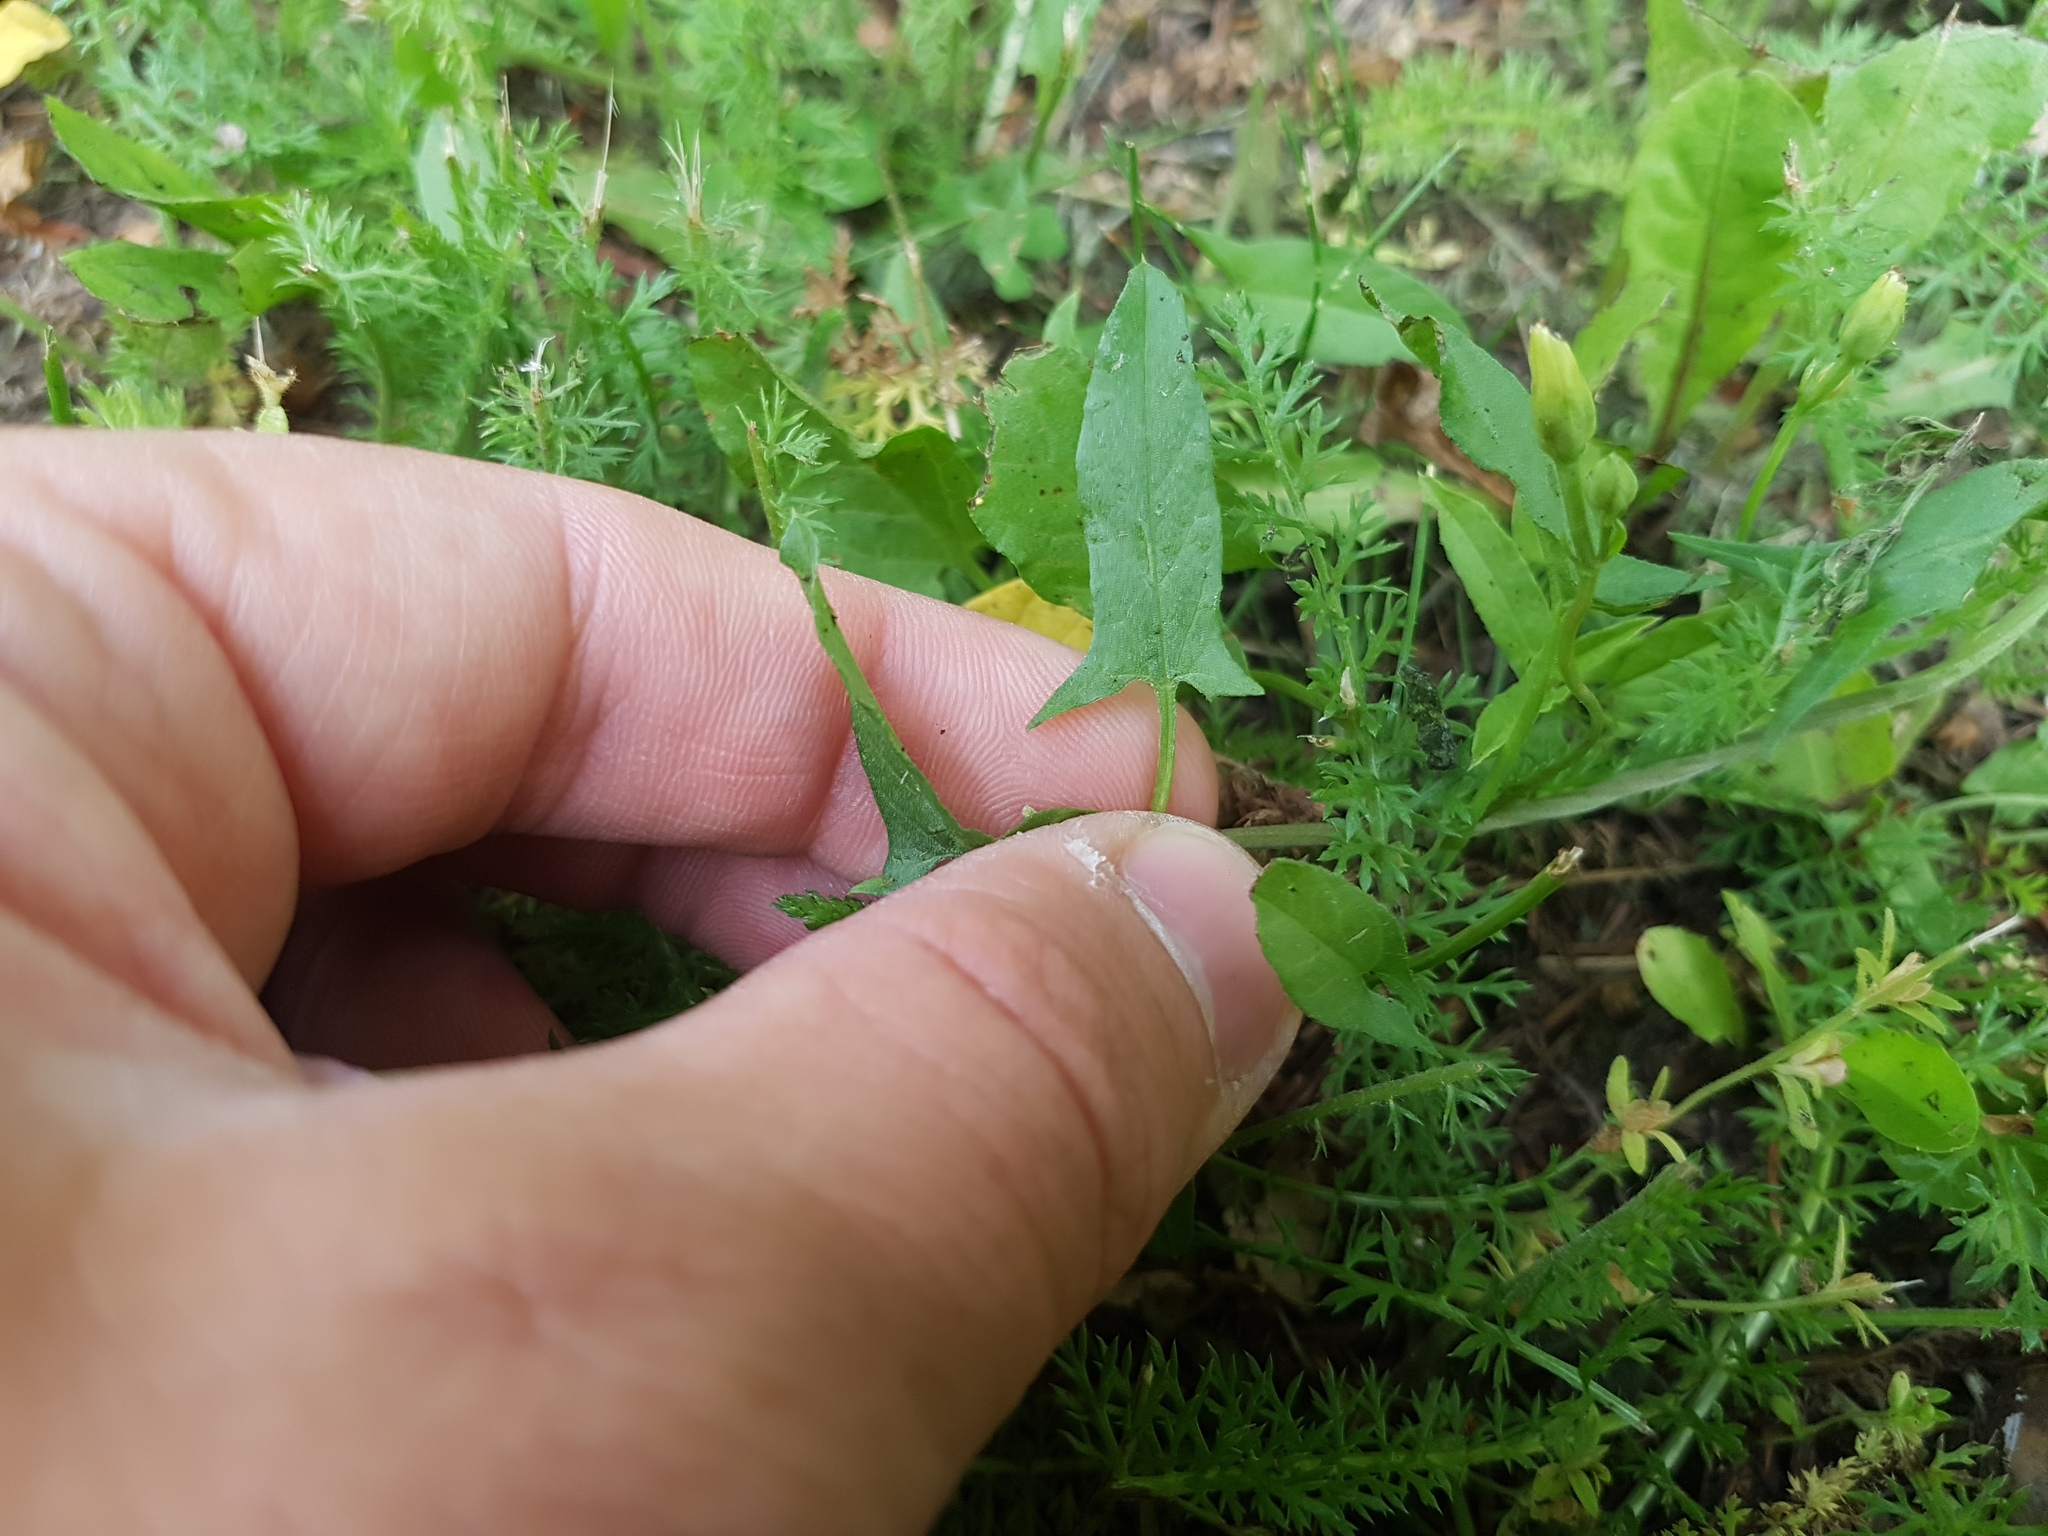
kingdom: Plantae
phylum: Tracheophyta
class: Magnoliopsida
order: Solanales
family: Convolvulaceae
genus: Convolvulus
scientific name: Convolvulus arvensis
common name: Field bindweed
